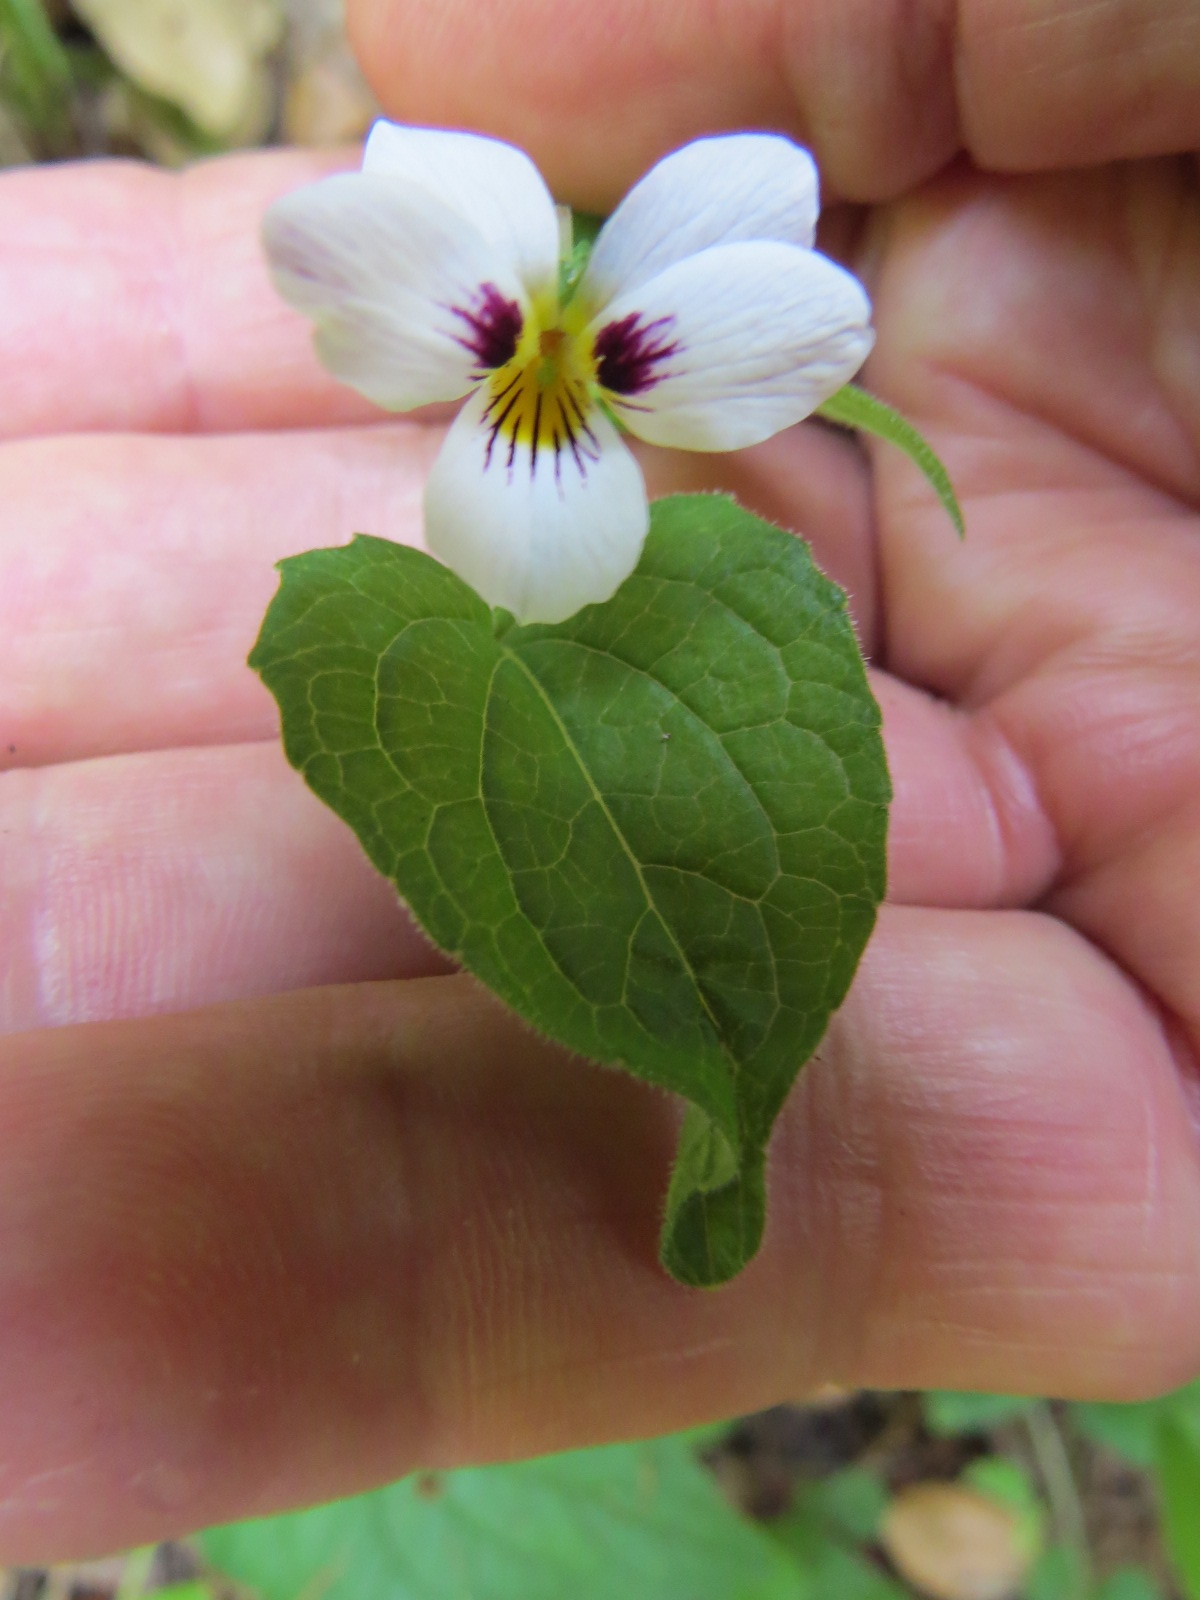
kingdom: Plantae
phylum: Tracheophyta
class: Magnoliopsida
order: Malpighiales
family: Violaceae
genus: Viola
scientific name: Viola ocellata
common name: Western heart's ease
